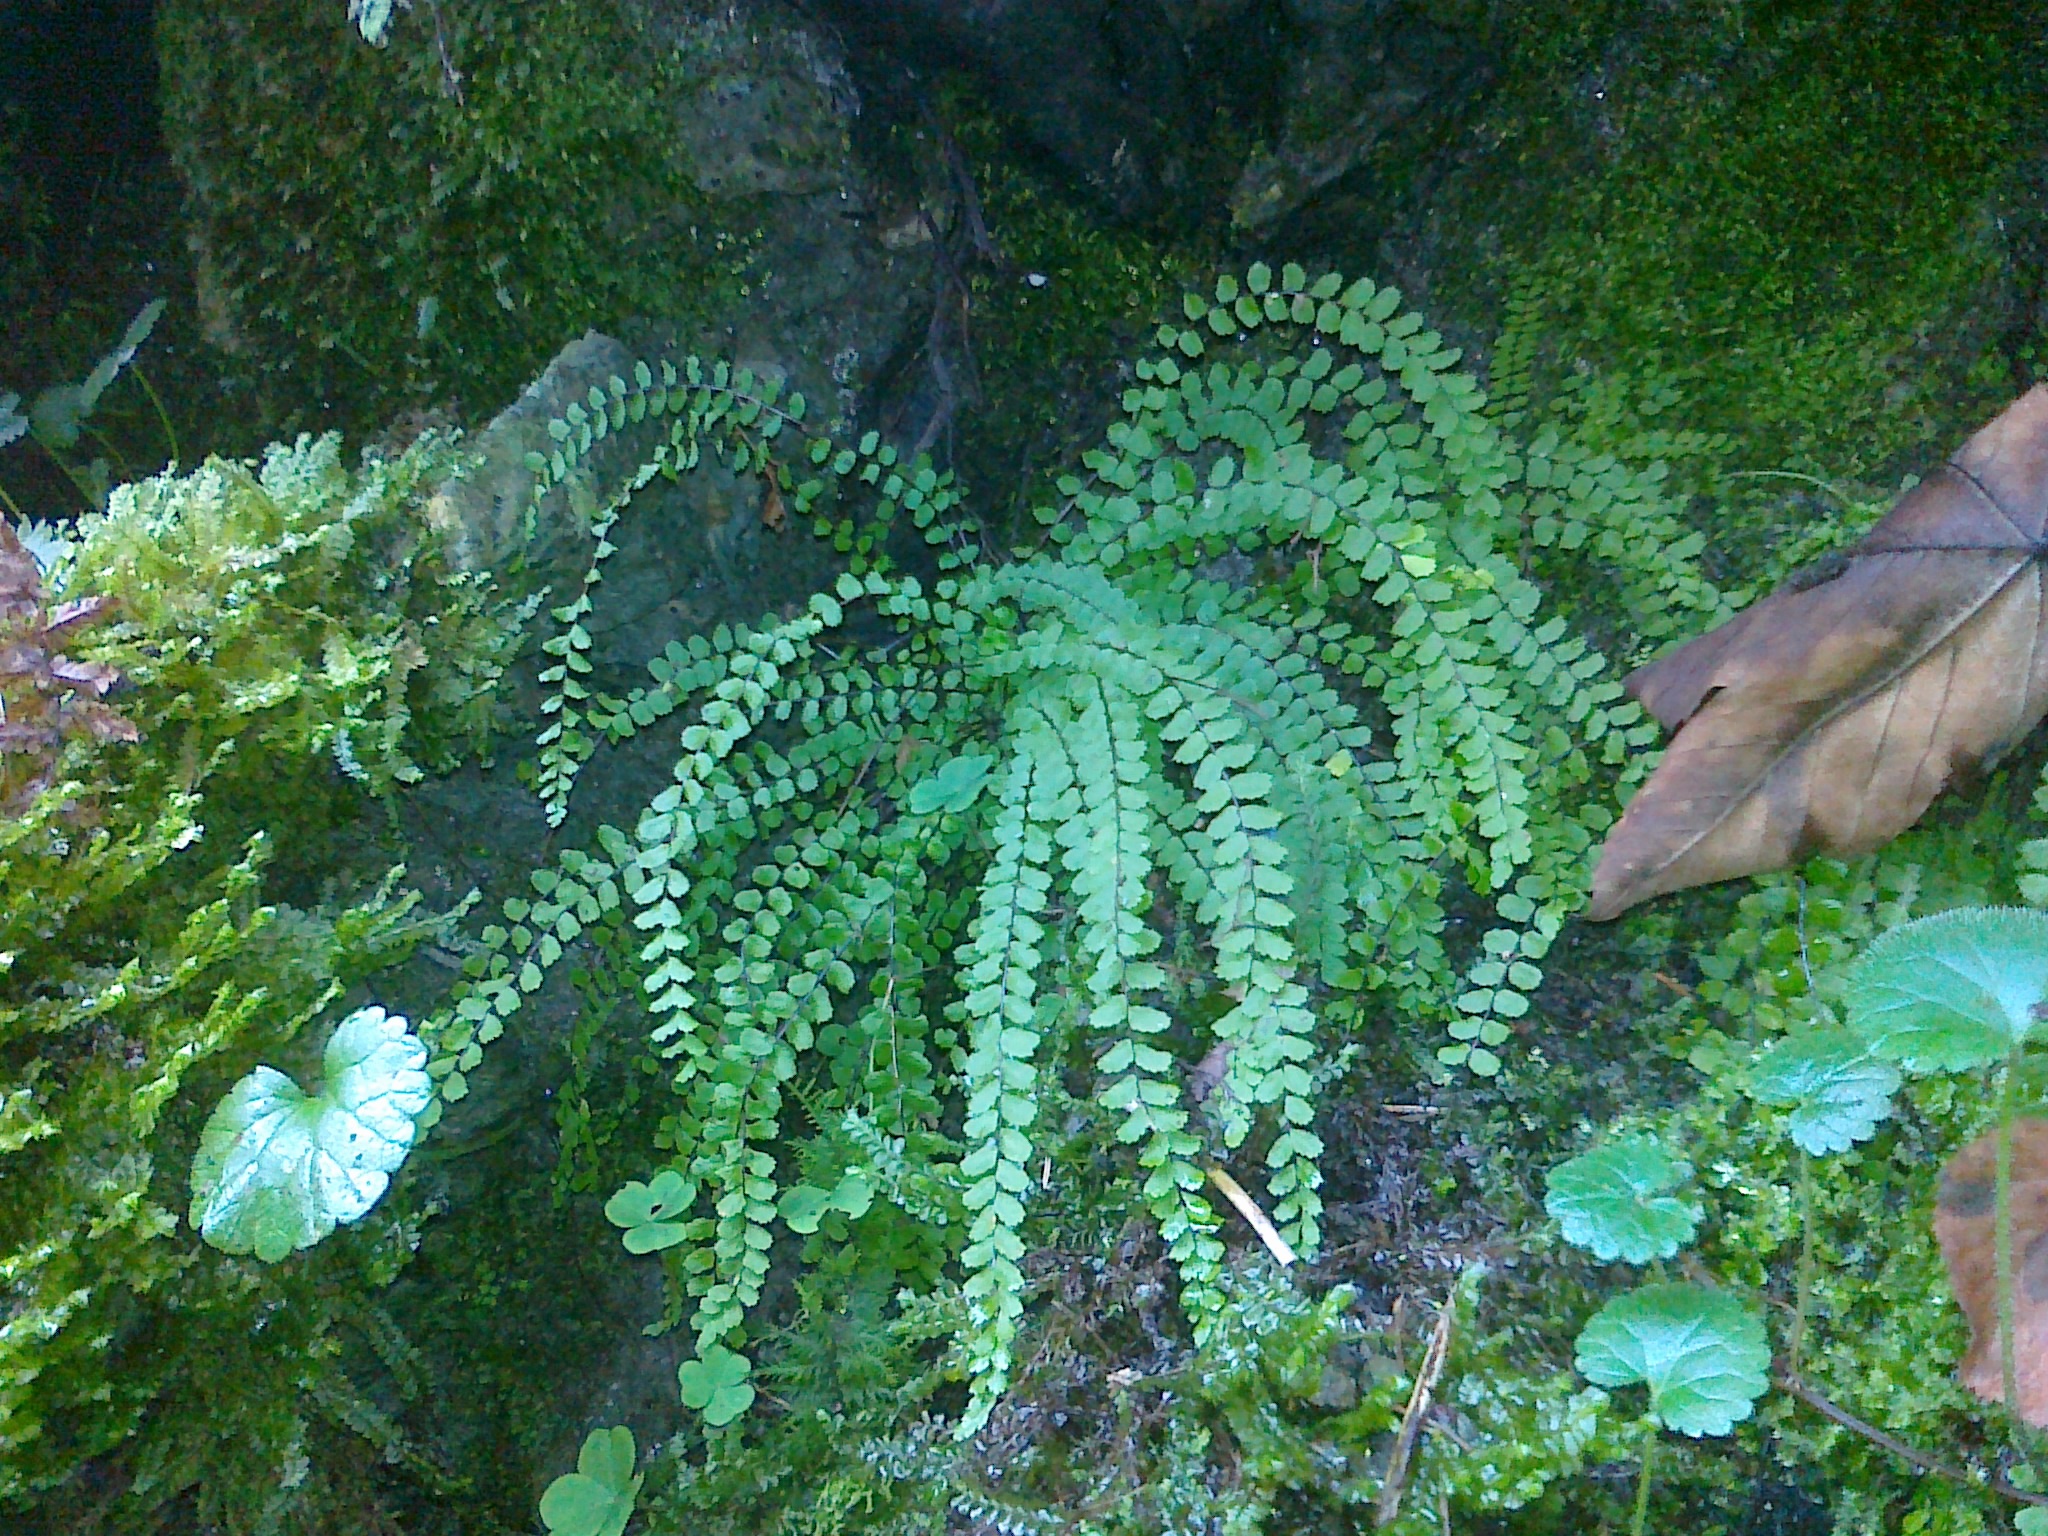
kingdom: Plantae
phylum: Tracheophyta
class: Polypodiopsida
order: Polypodiales
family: Aspleniaceae
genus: Asplenium
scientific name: Asplenium trichomanes
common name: Maidenhair spleenwort
